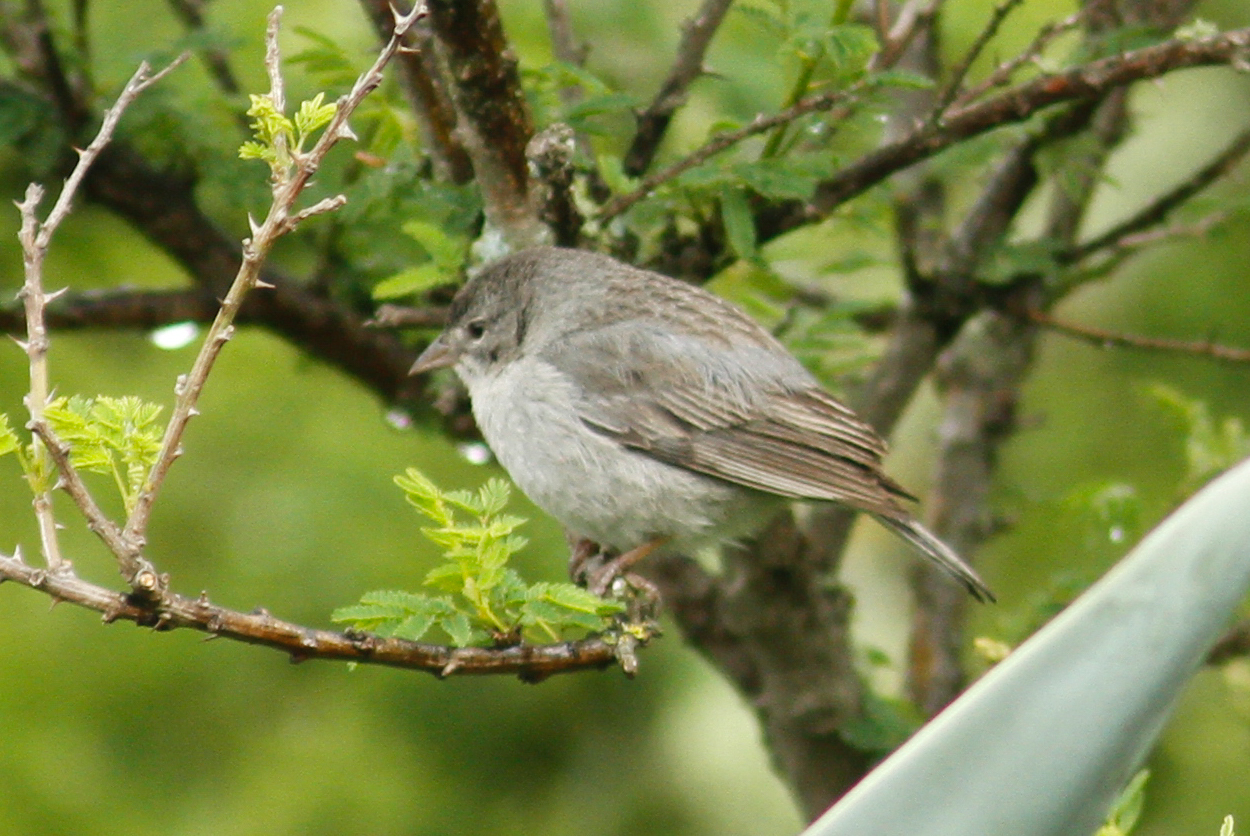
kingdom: Animalia
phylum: Chordata
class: Aves
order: Passeriformes
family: Thraupidae
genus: Geospizopsis
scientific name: Geospizopsis plebejus
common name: Ash-breasted sierra-finch
